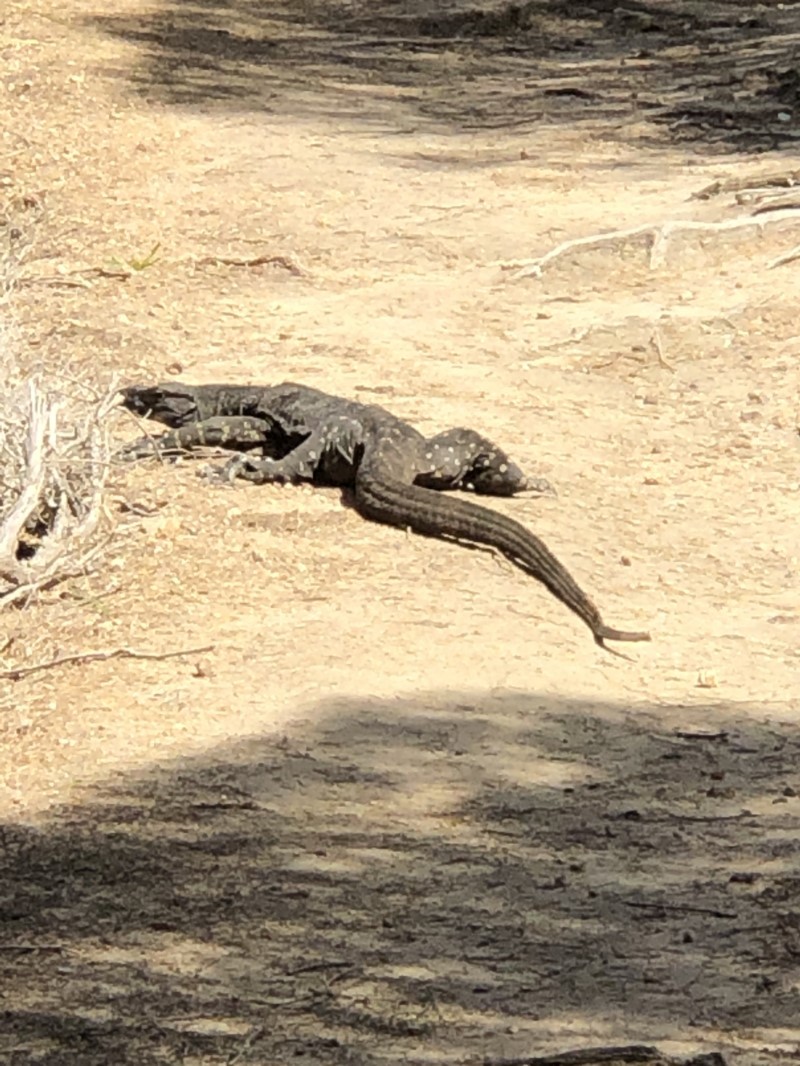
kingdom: Animalia
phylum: Chordata
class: Squamata
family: Varanidae
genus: Varanus
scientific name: Varanus varius
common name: Lace monitor
